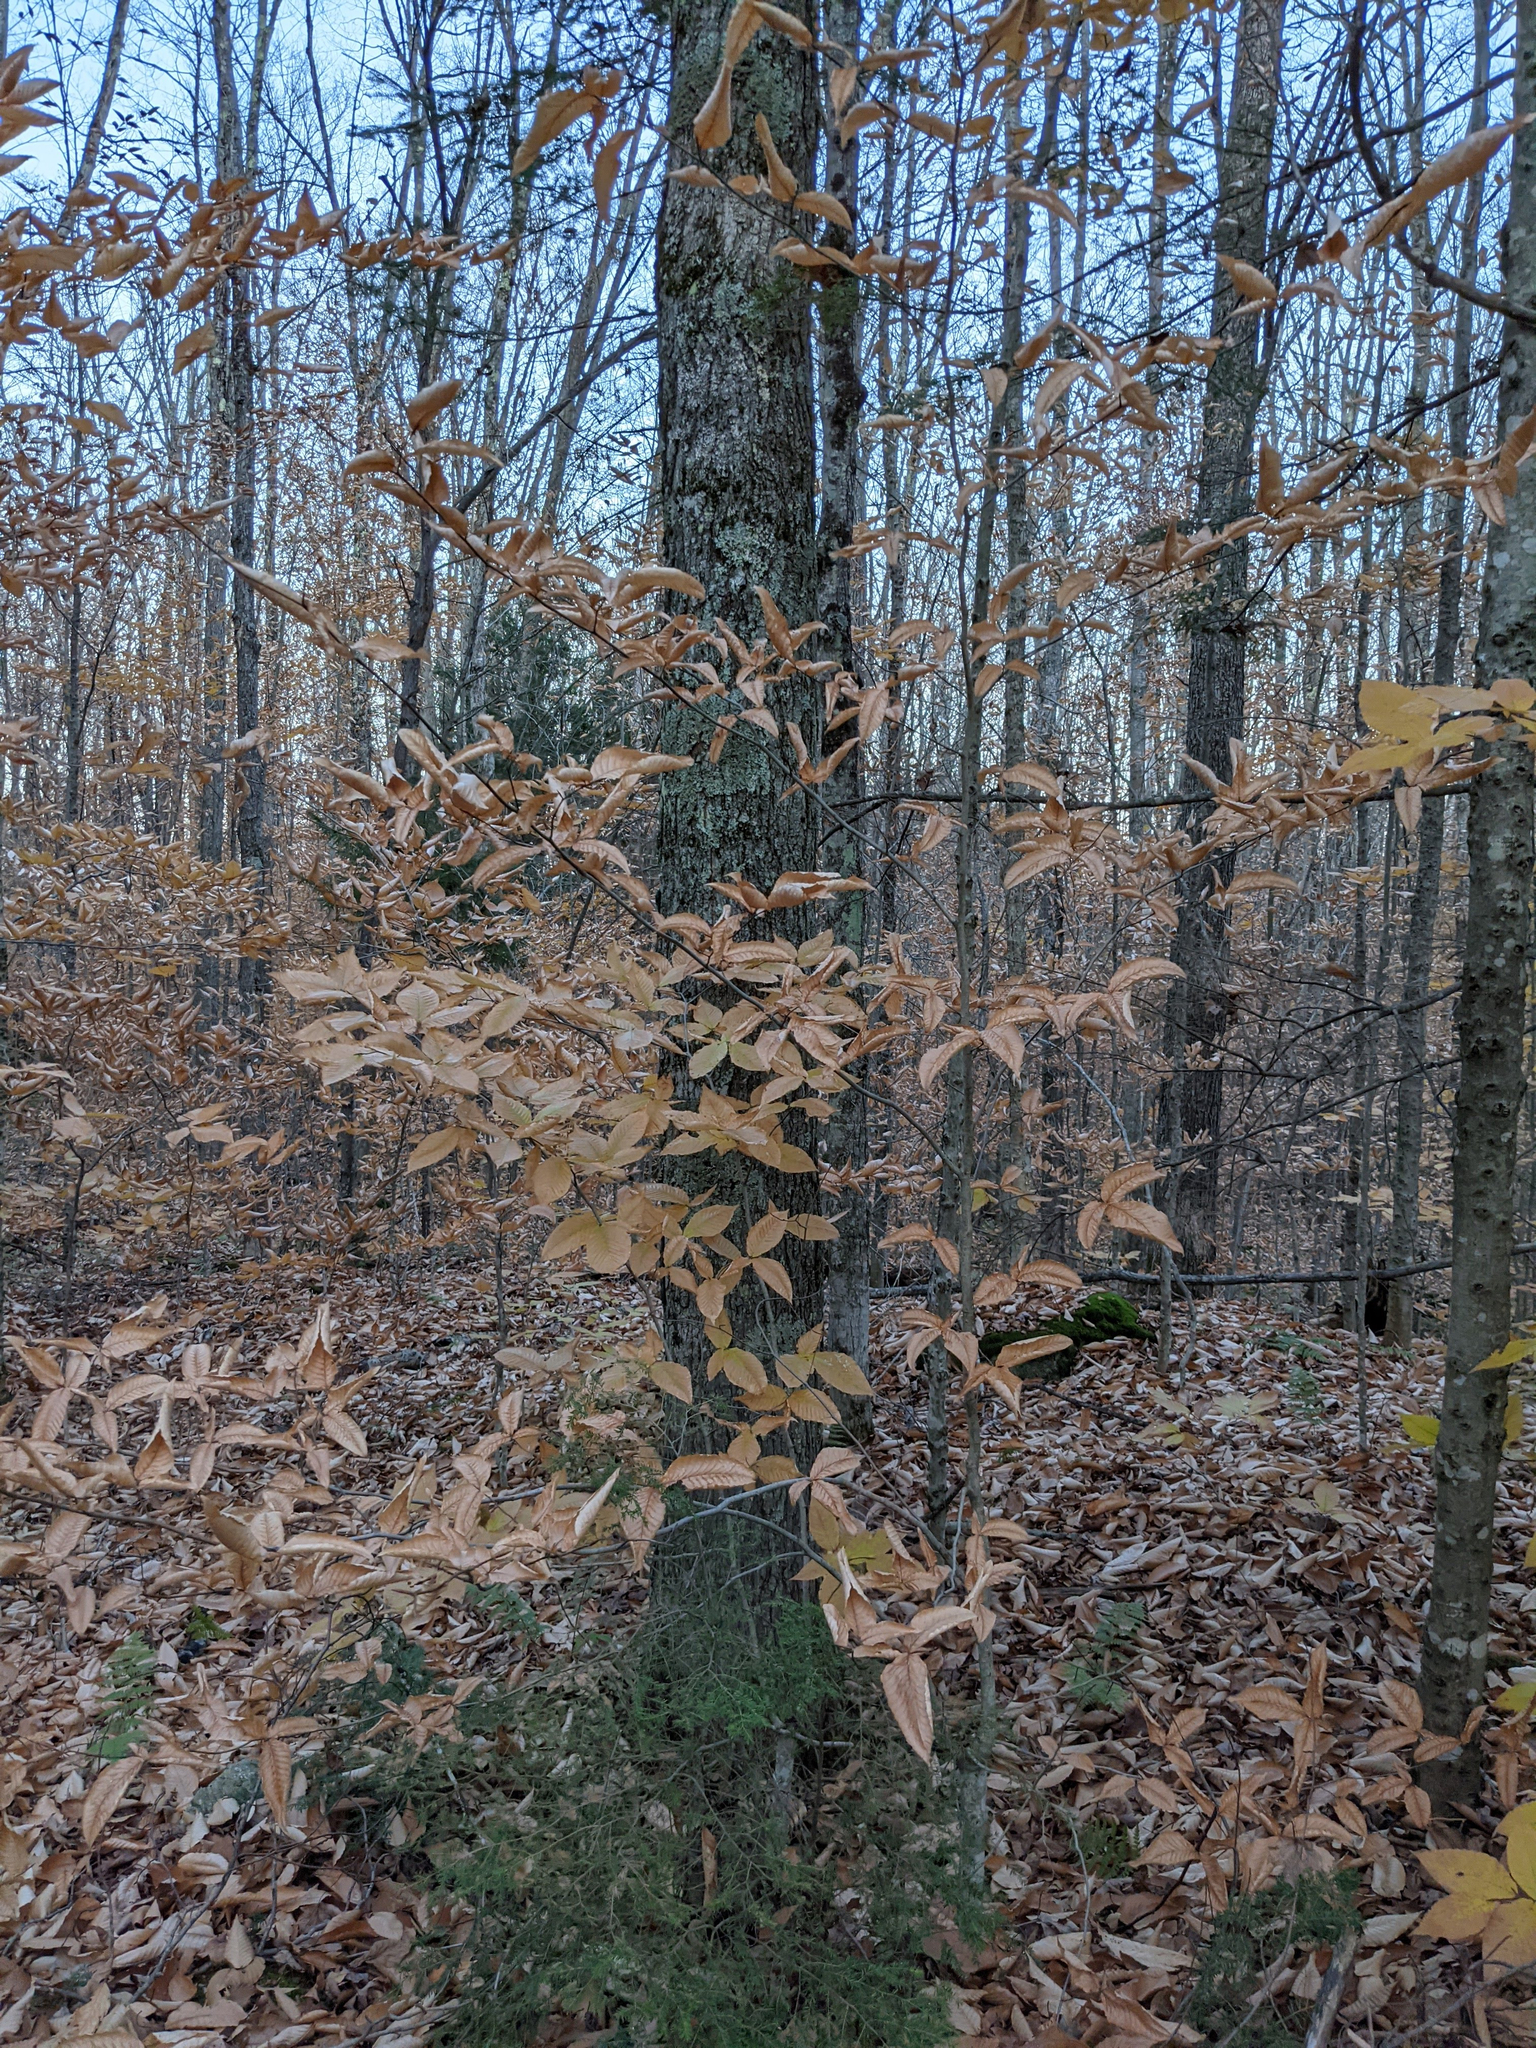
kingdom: Plantae
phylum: Tracheophyta
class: Magnoliopsida
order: Fagales
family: Fagaceae
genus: Fagus
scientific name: Fagus grandifolia
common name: American beech
